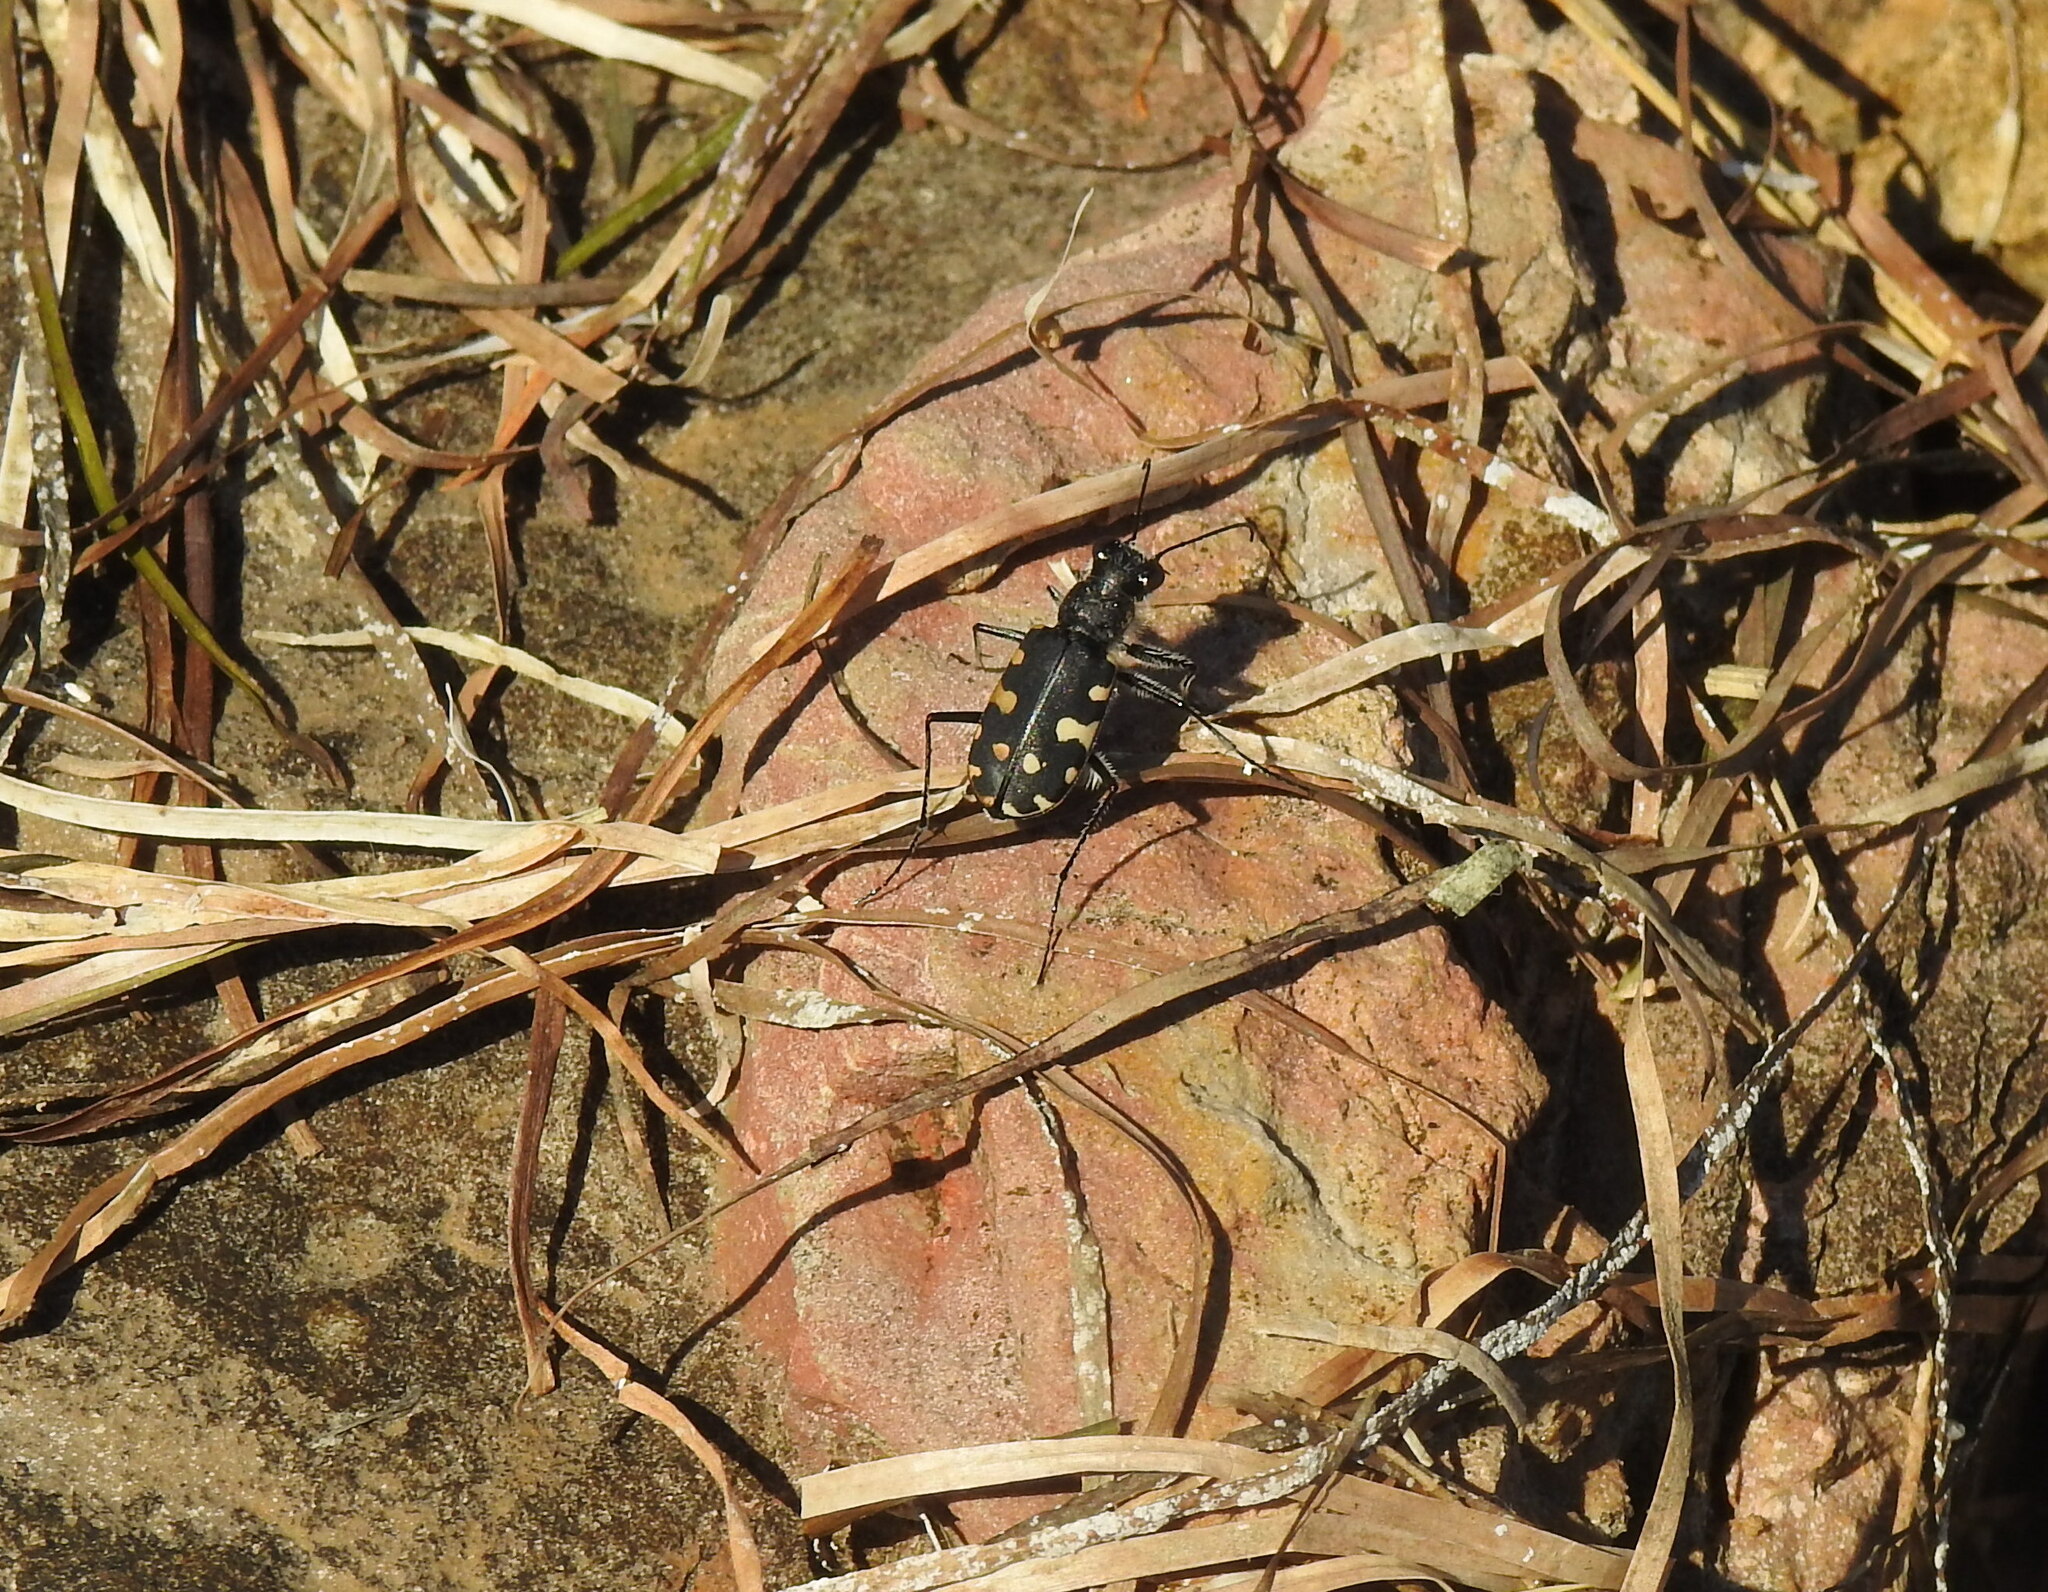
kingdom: Animalia
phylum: Arthropoda
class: Insecta
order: Coleoptera
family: Carabidae
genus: Cicindela
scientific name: Cicindela littoralis
